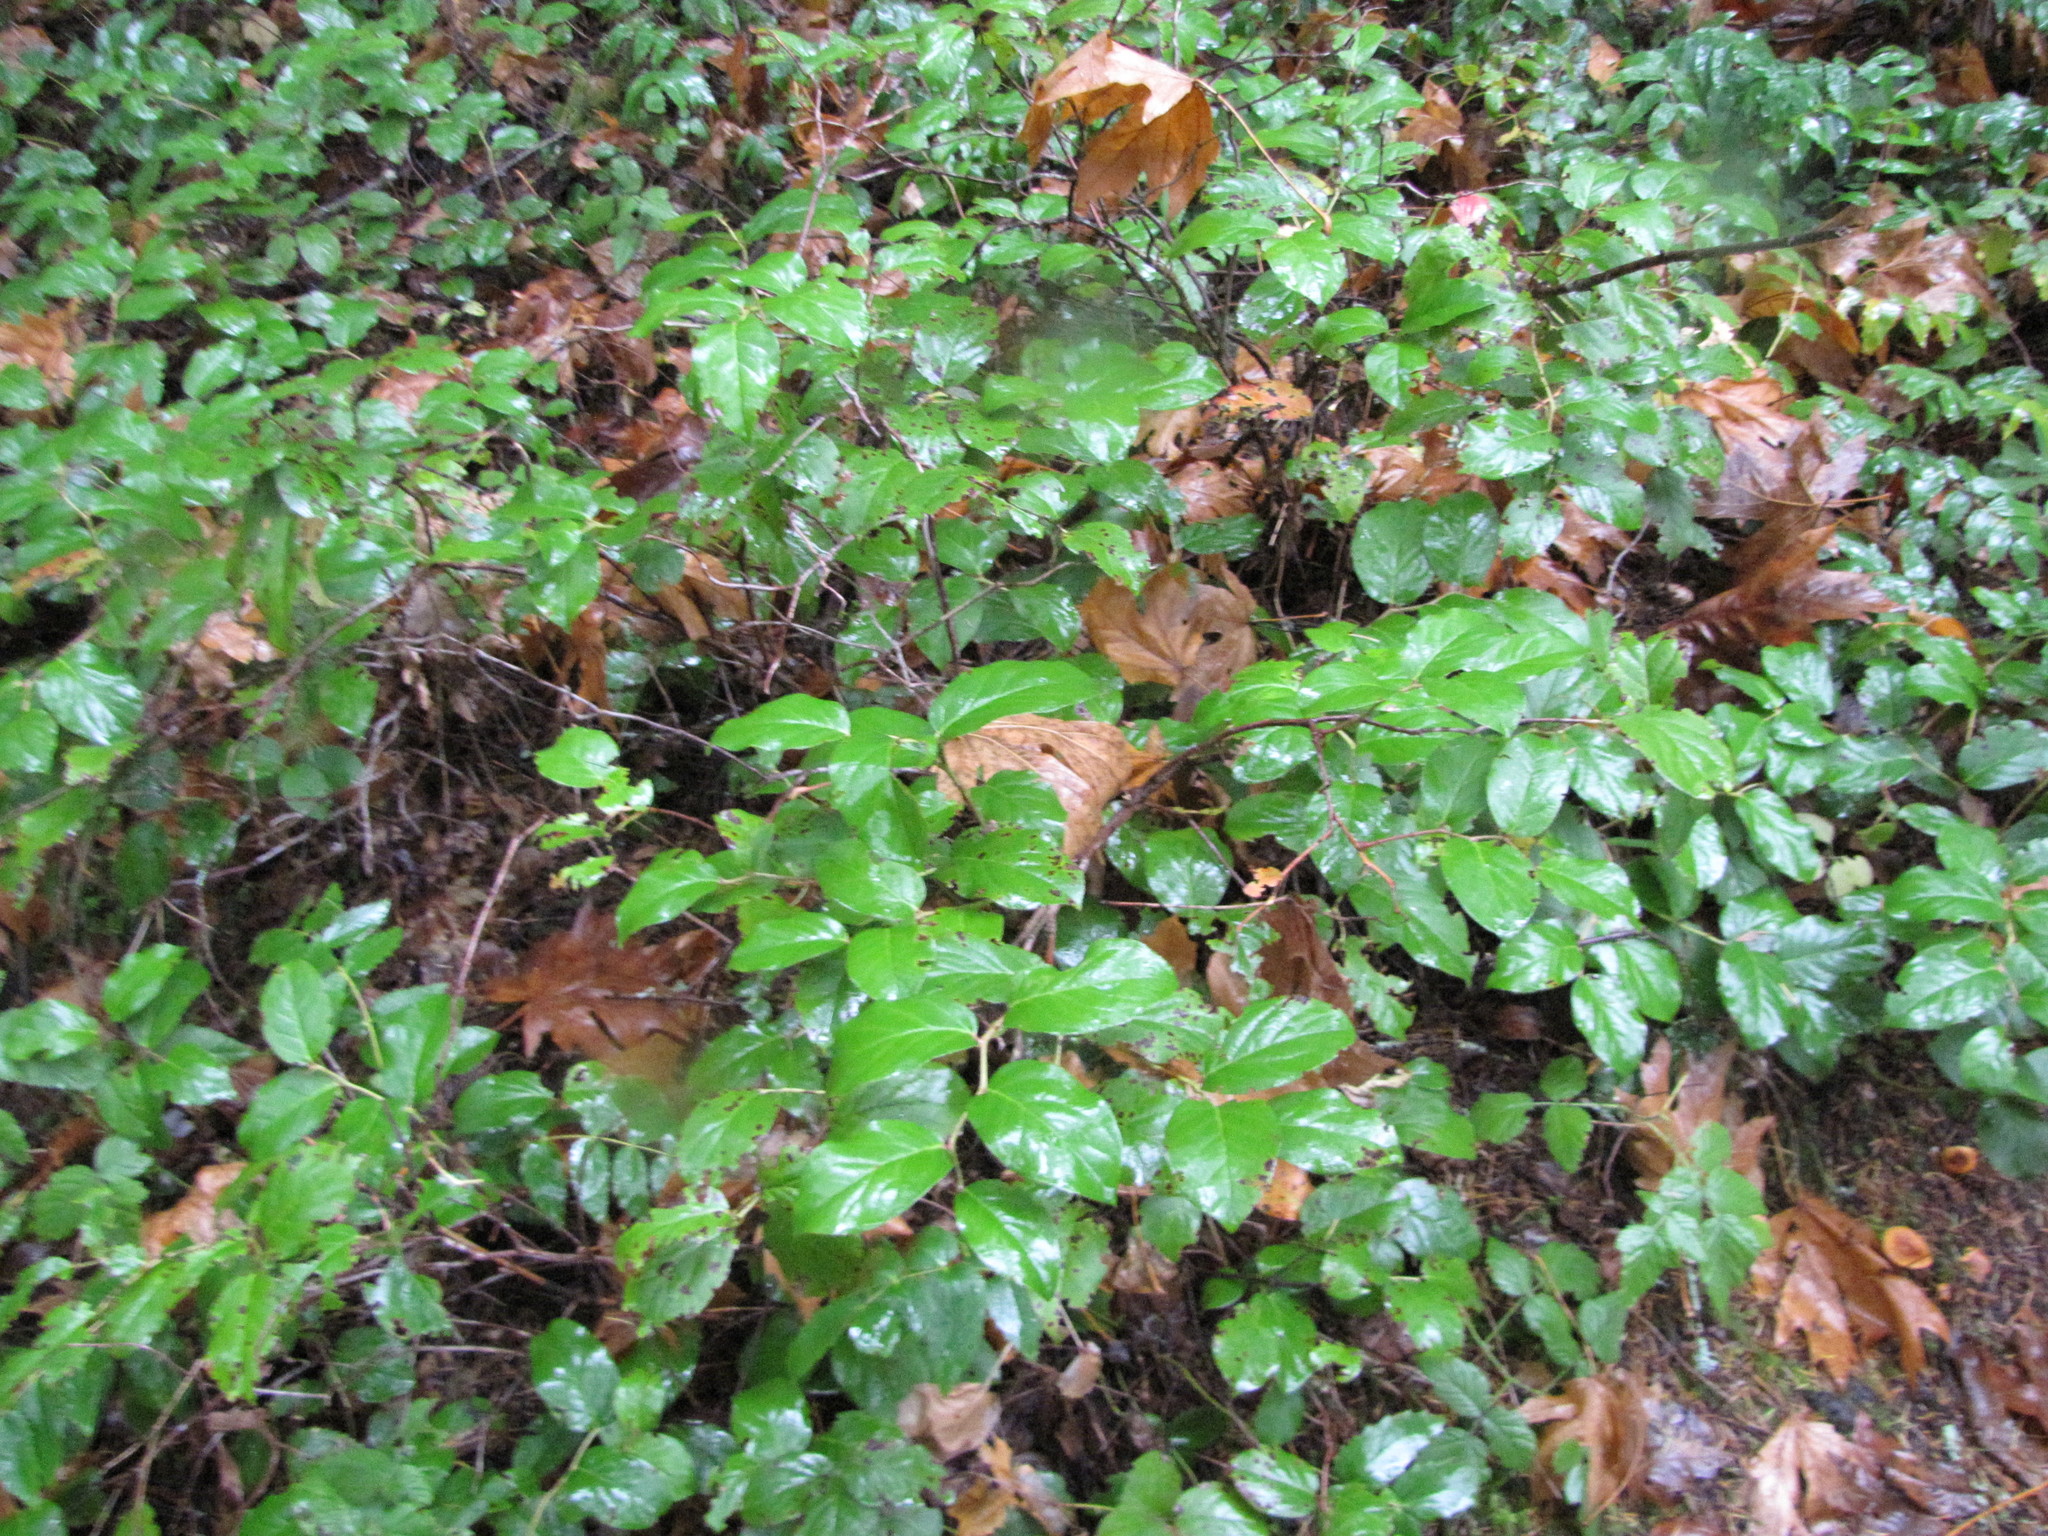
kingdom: Plantae
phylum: Tracheophyta
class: Magnoliopsida
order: Ericales
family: Ericaceae
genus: Gaultheria
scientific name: Gaultheria shallon
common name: Shallon
